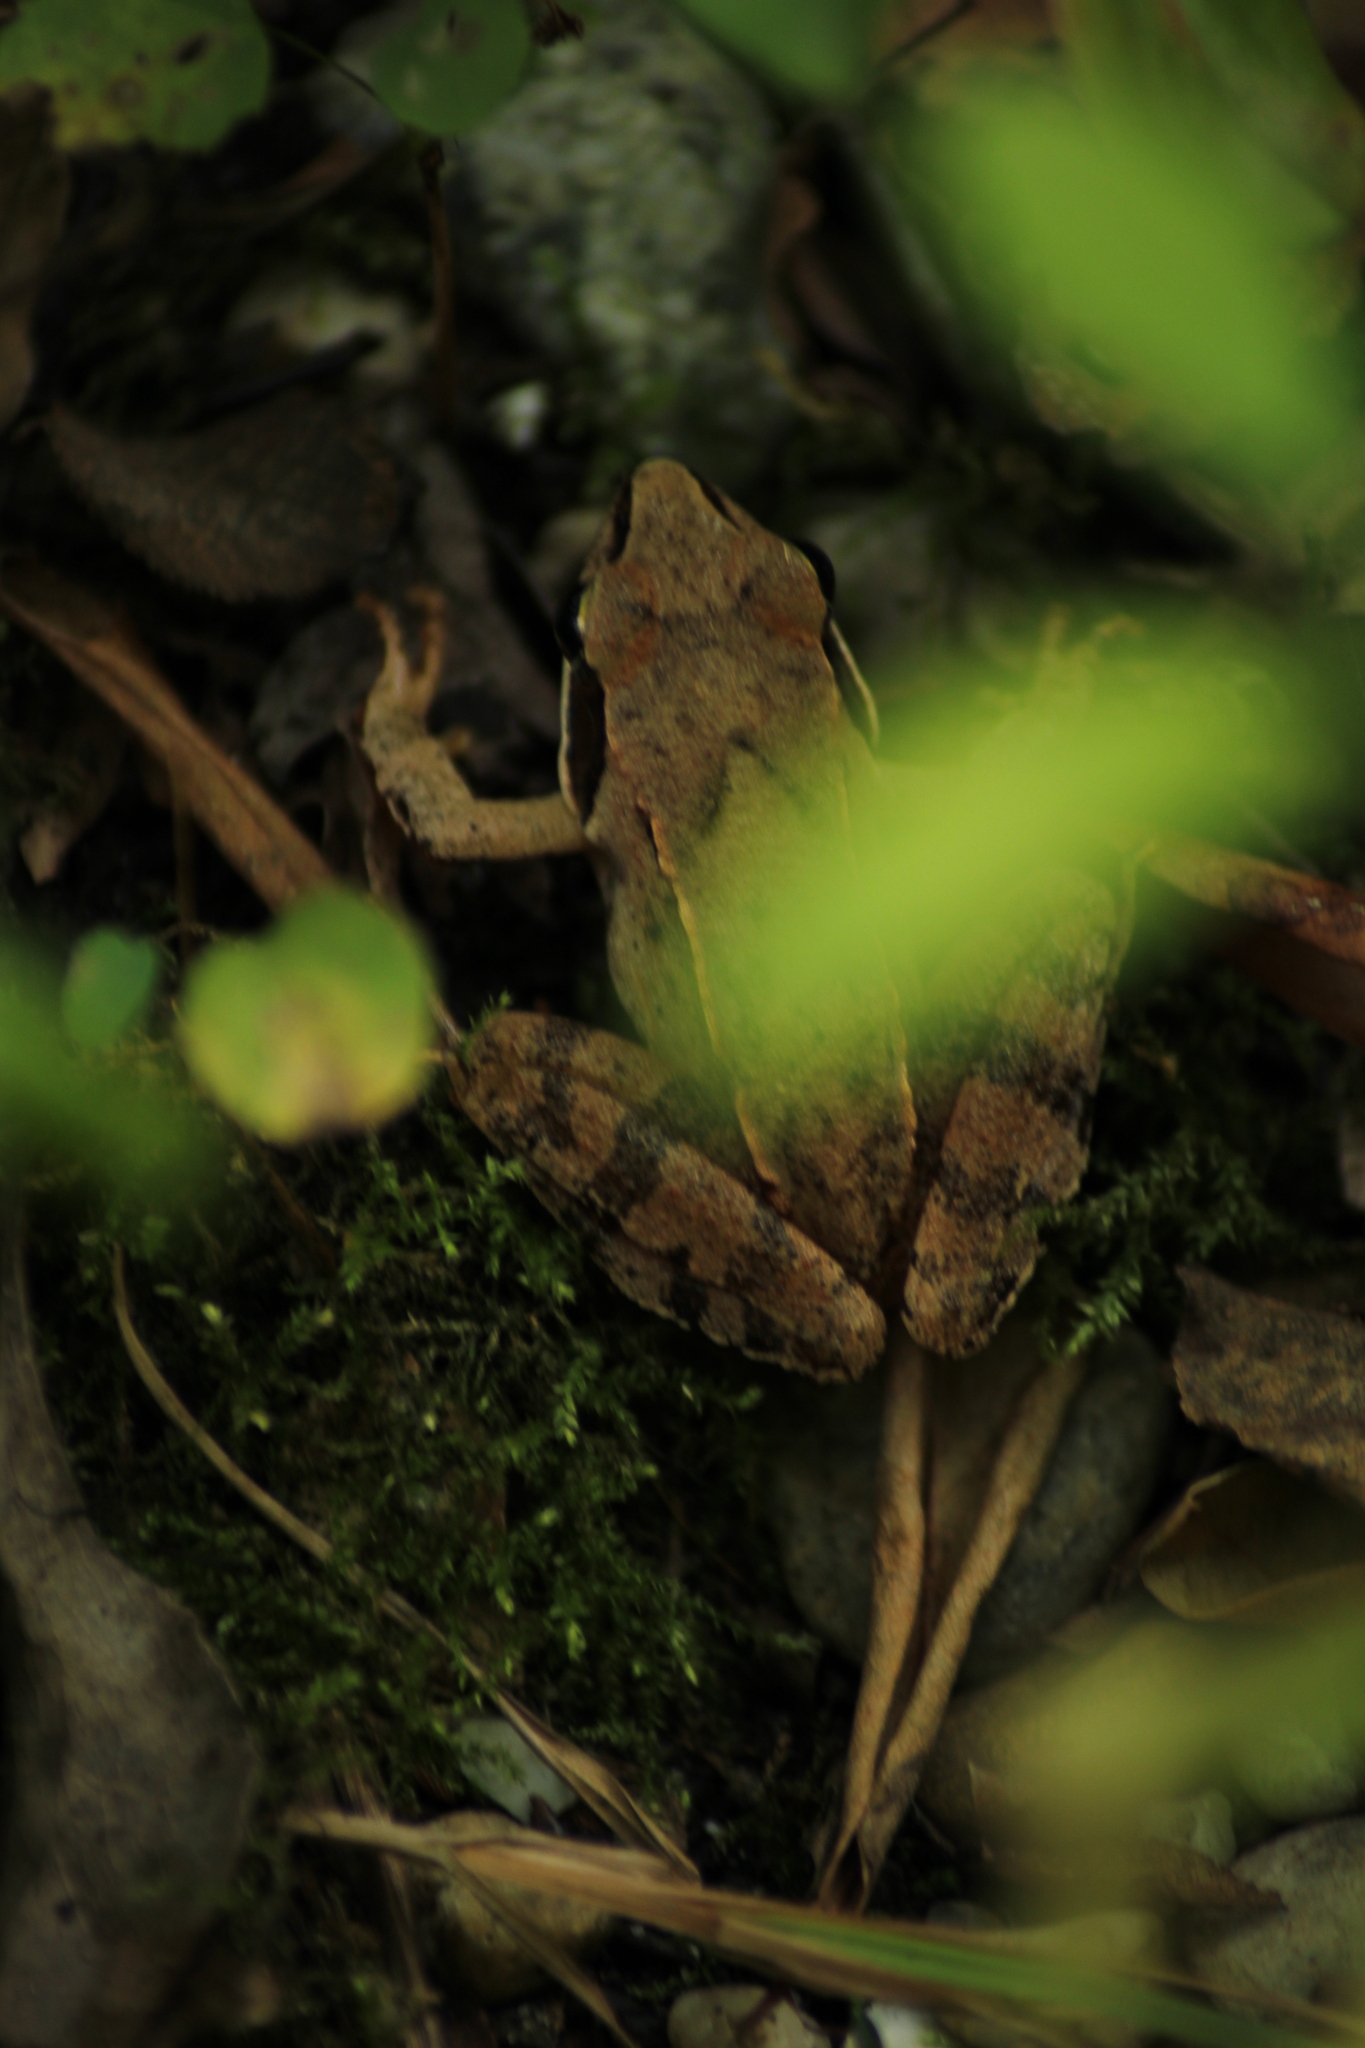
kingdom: Animalia
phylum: Chordata
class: Amphibia
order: Anura
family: Ranidae
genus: Rana
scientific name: Rana dalmatina
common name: Agile frog
